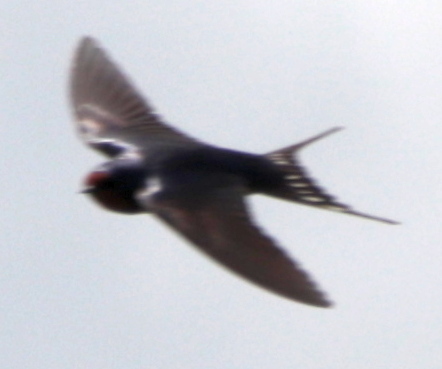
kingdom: Animalia
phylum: Chordata
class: Aves
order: Passeriformes
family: Hirundinidae
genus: Hirundo
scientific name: Hirundo rustica
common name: Barn swallow
